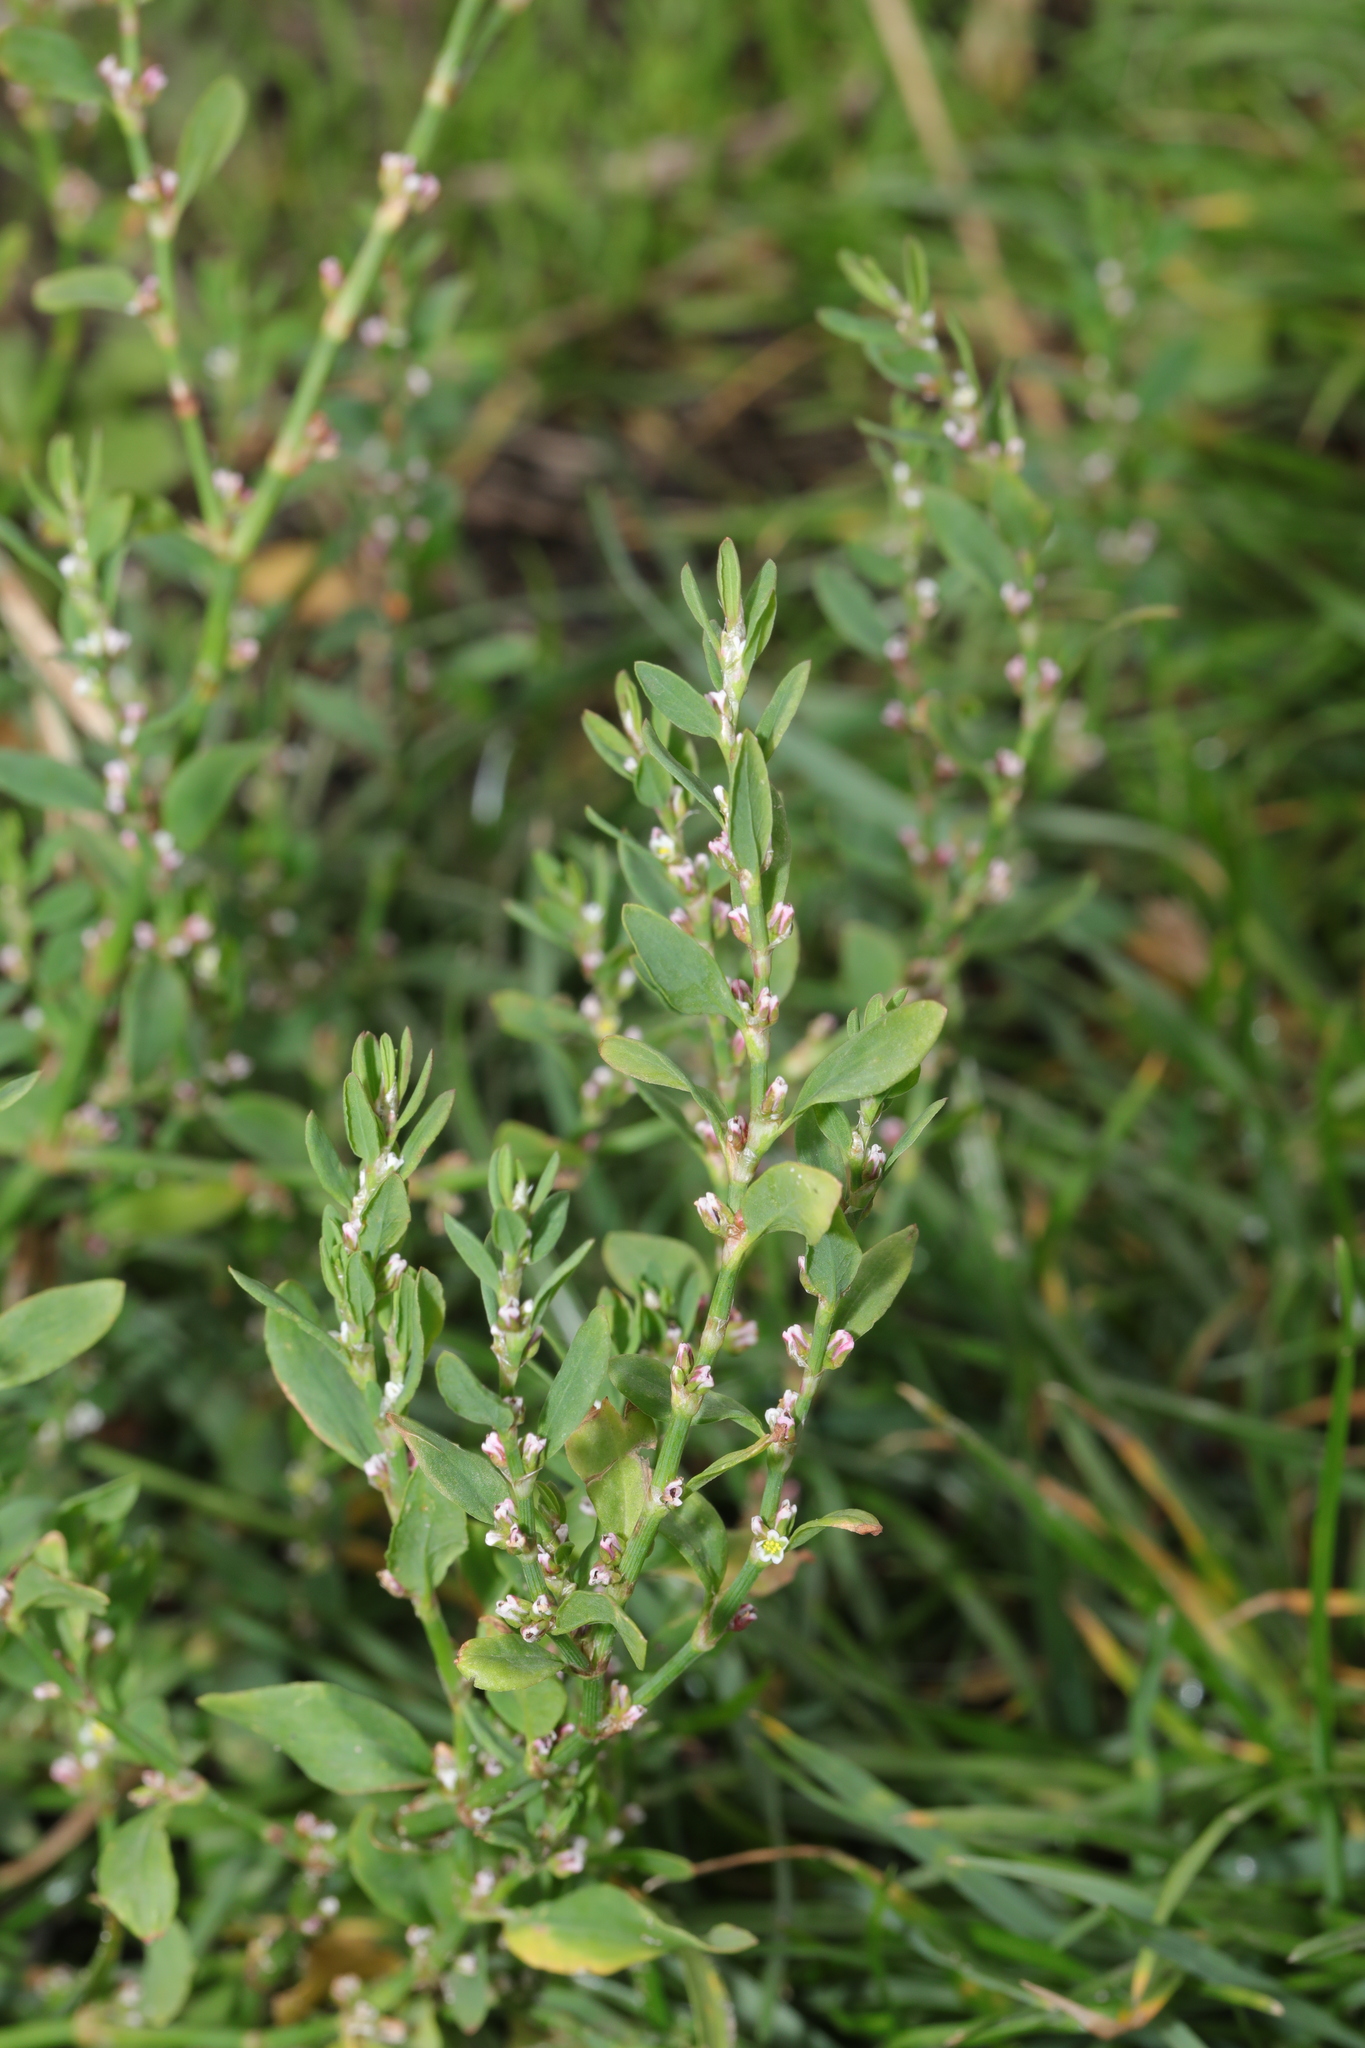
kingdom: Plantae
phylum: Tracheophyta
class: Magnoliopsida
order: Caryophyllales
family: Polygonaceae
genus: Polygonum
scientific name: Polygonum aviculare
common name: Prostrate knotweed
